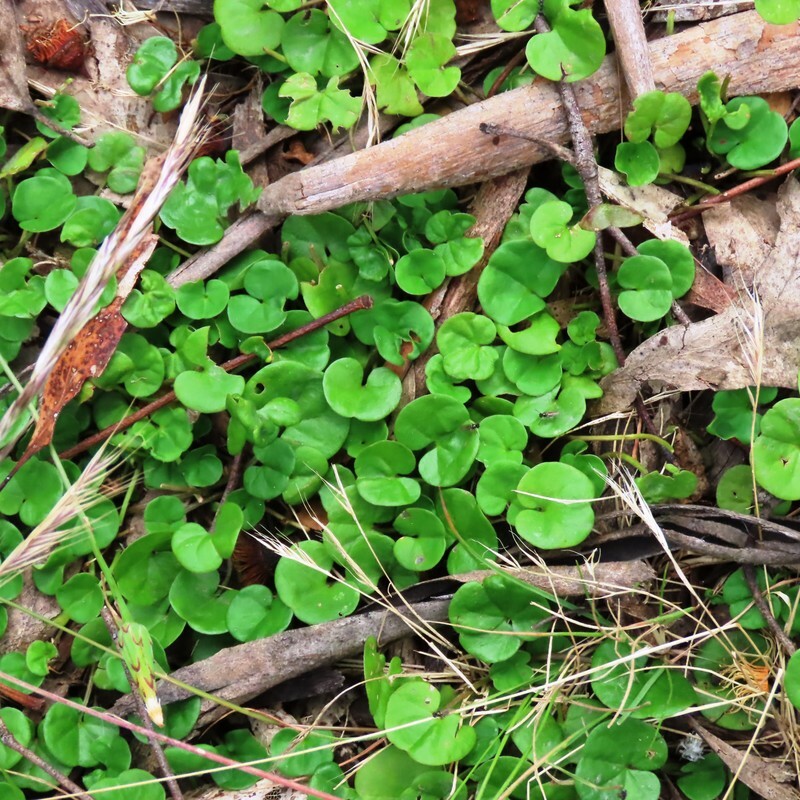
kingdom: Plantae
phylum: Tracheophyta
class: Magnoliopsida
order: Solanales
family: Convolvulaceae
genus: Dichondra
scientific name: Dichondra repens
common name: Kidneyweed
